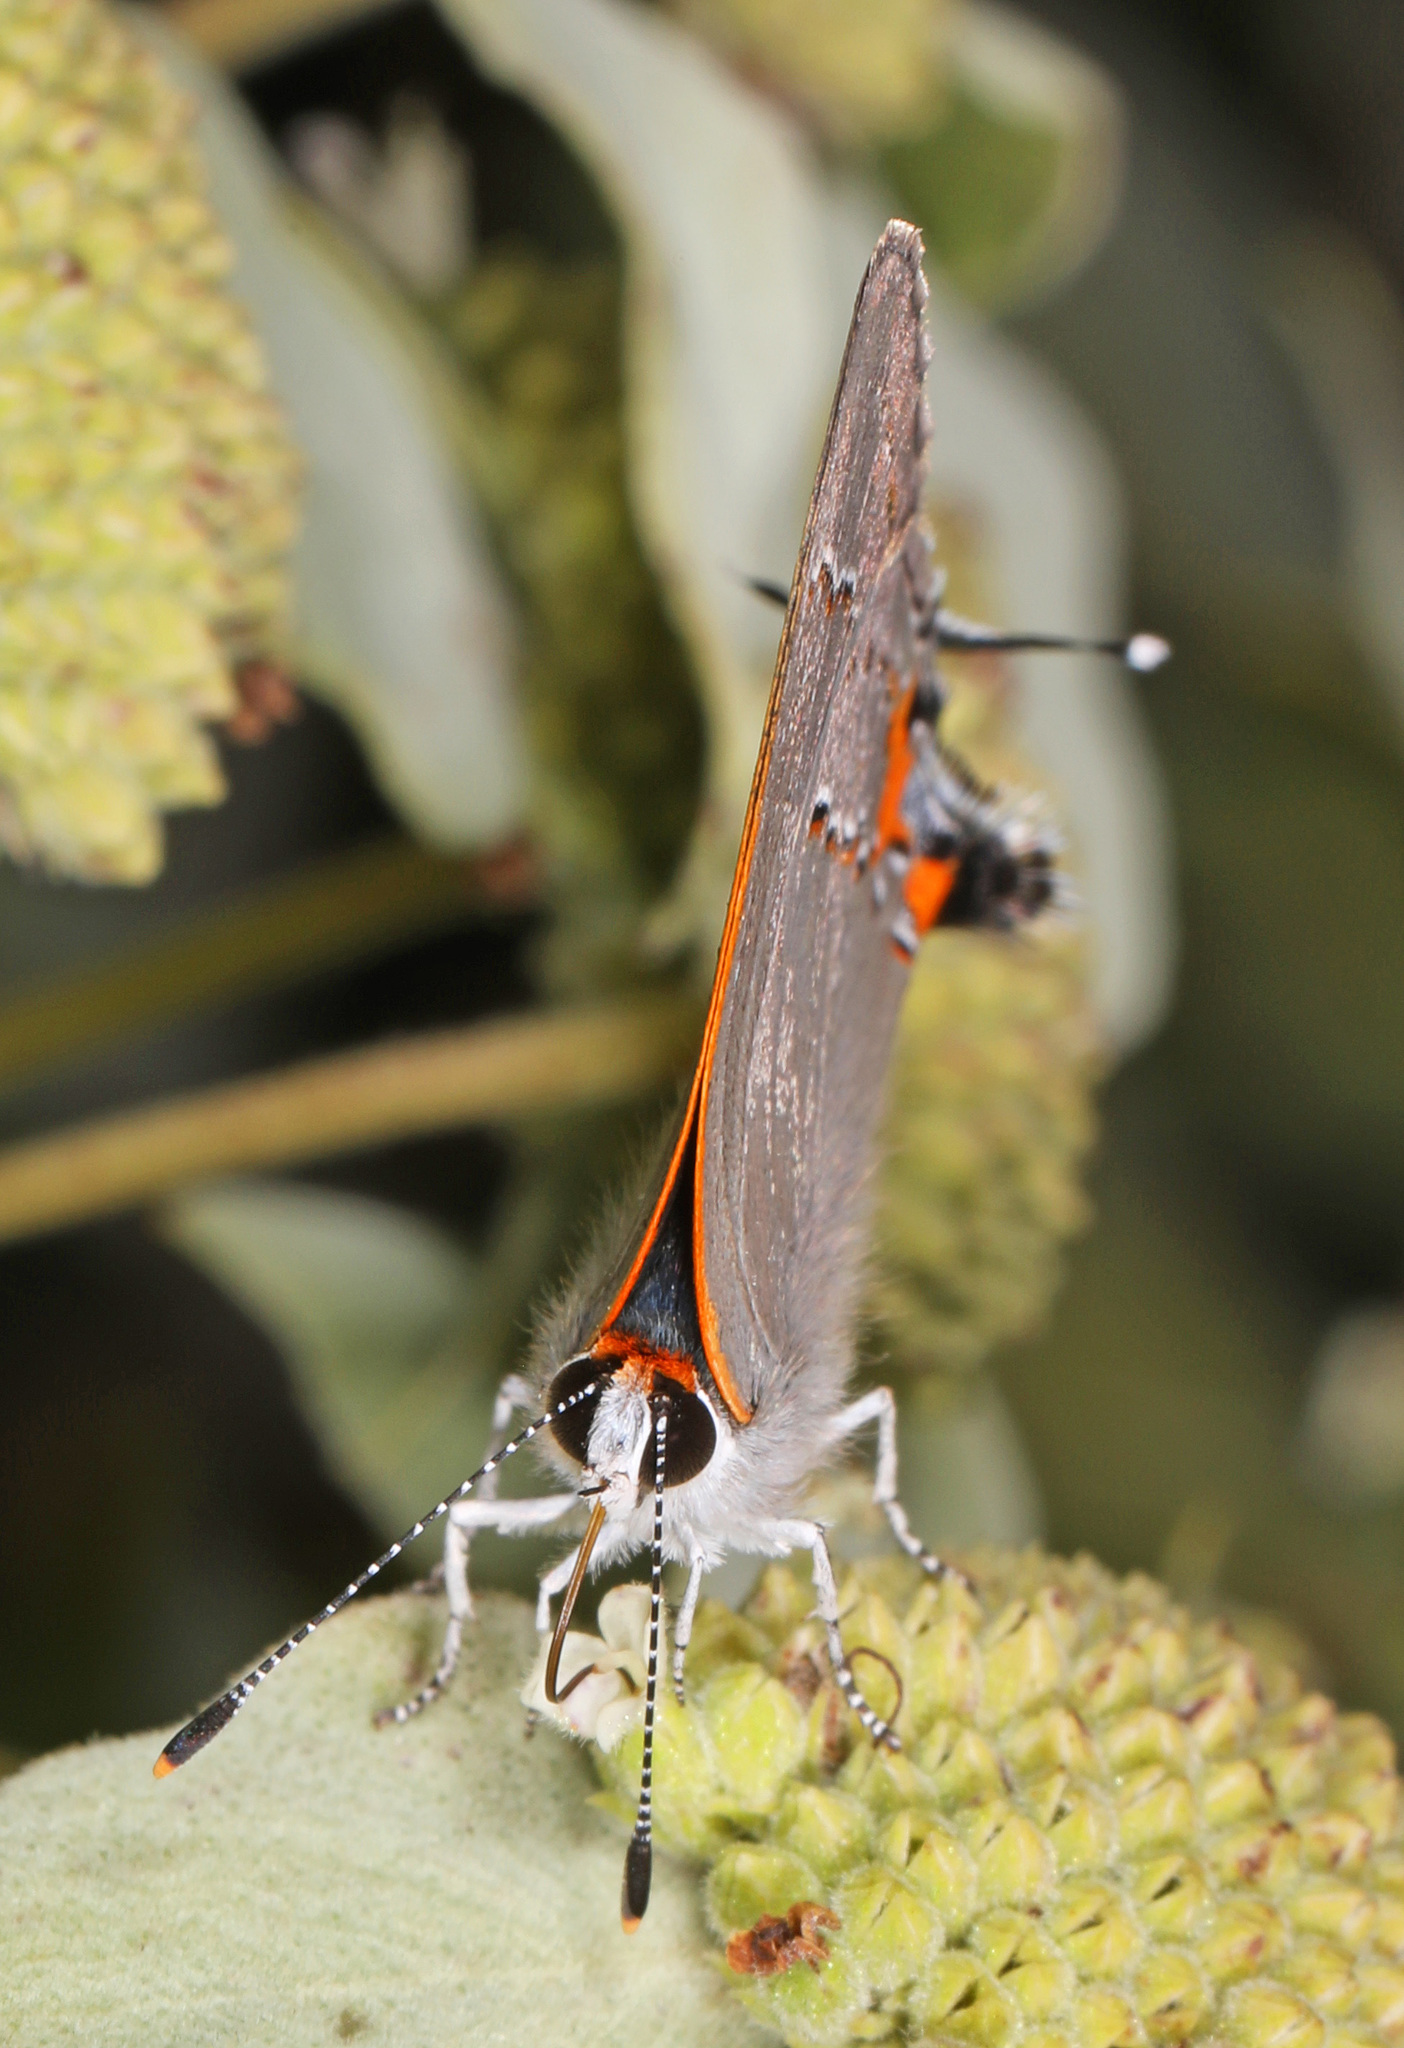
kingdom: Animalia
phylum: Arthropoda
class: Insecta
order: Lepidoptera
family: Lycaenidae
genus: Strymon
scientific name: Strymon melinus
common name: Gray hairstreak
